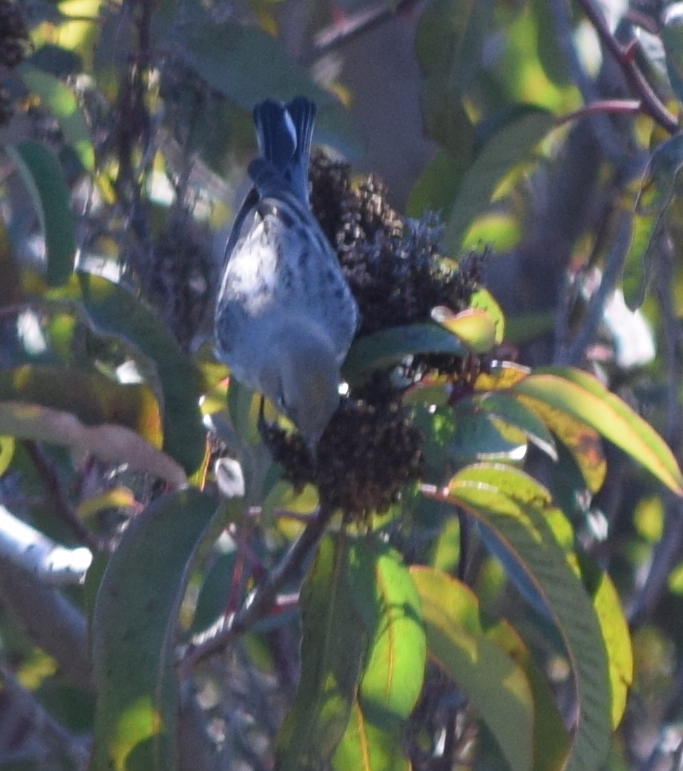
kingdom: Animalia
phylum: Chordata
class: Aves
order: Passeriformes
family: Parulidae
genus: Setophaga
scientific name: Setophaga coronata
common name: Myrtle warbler
